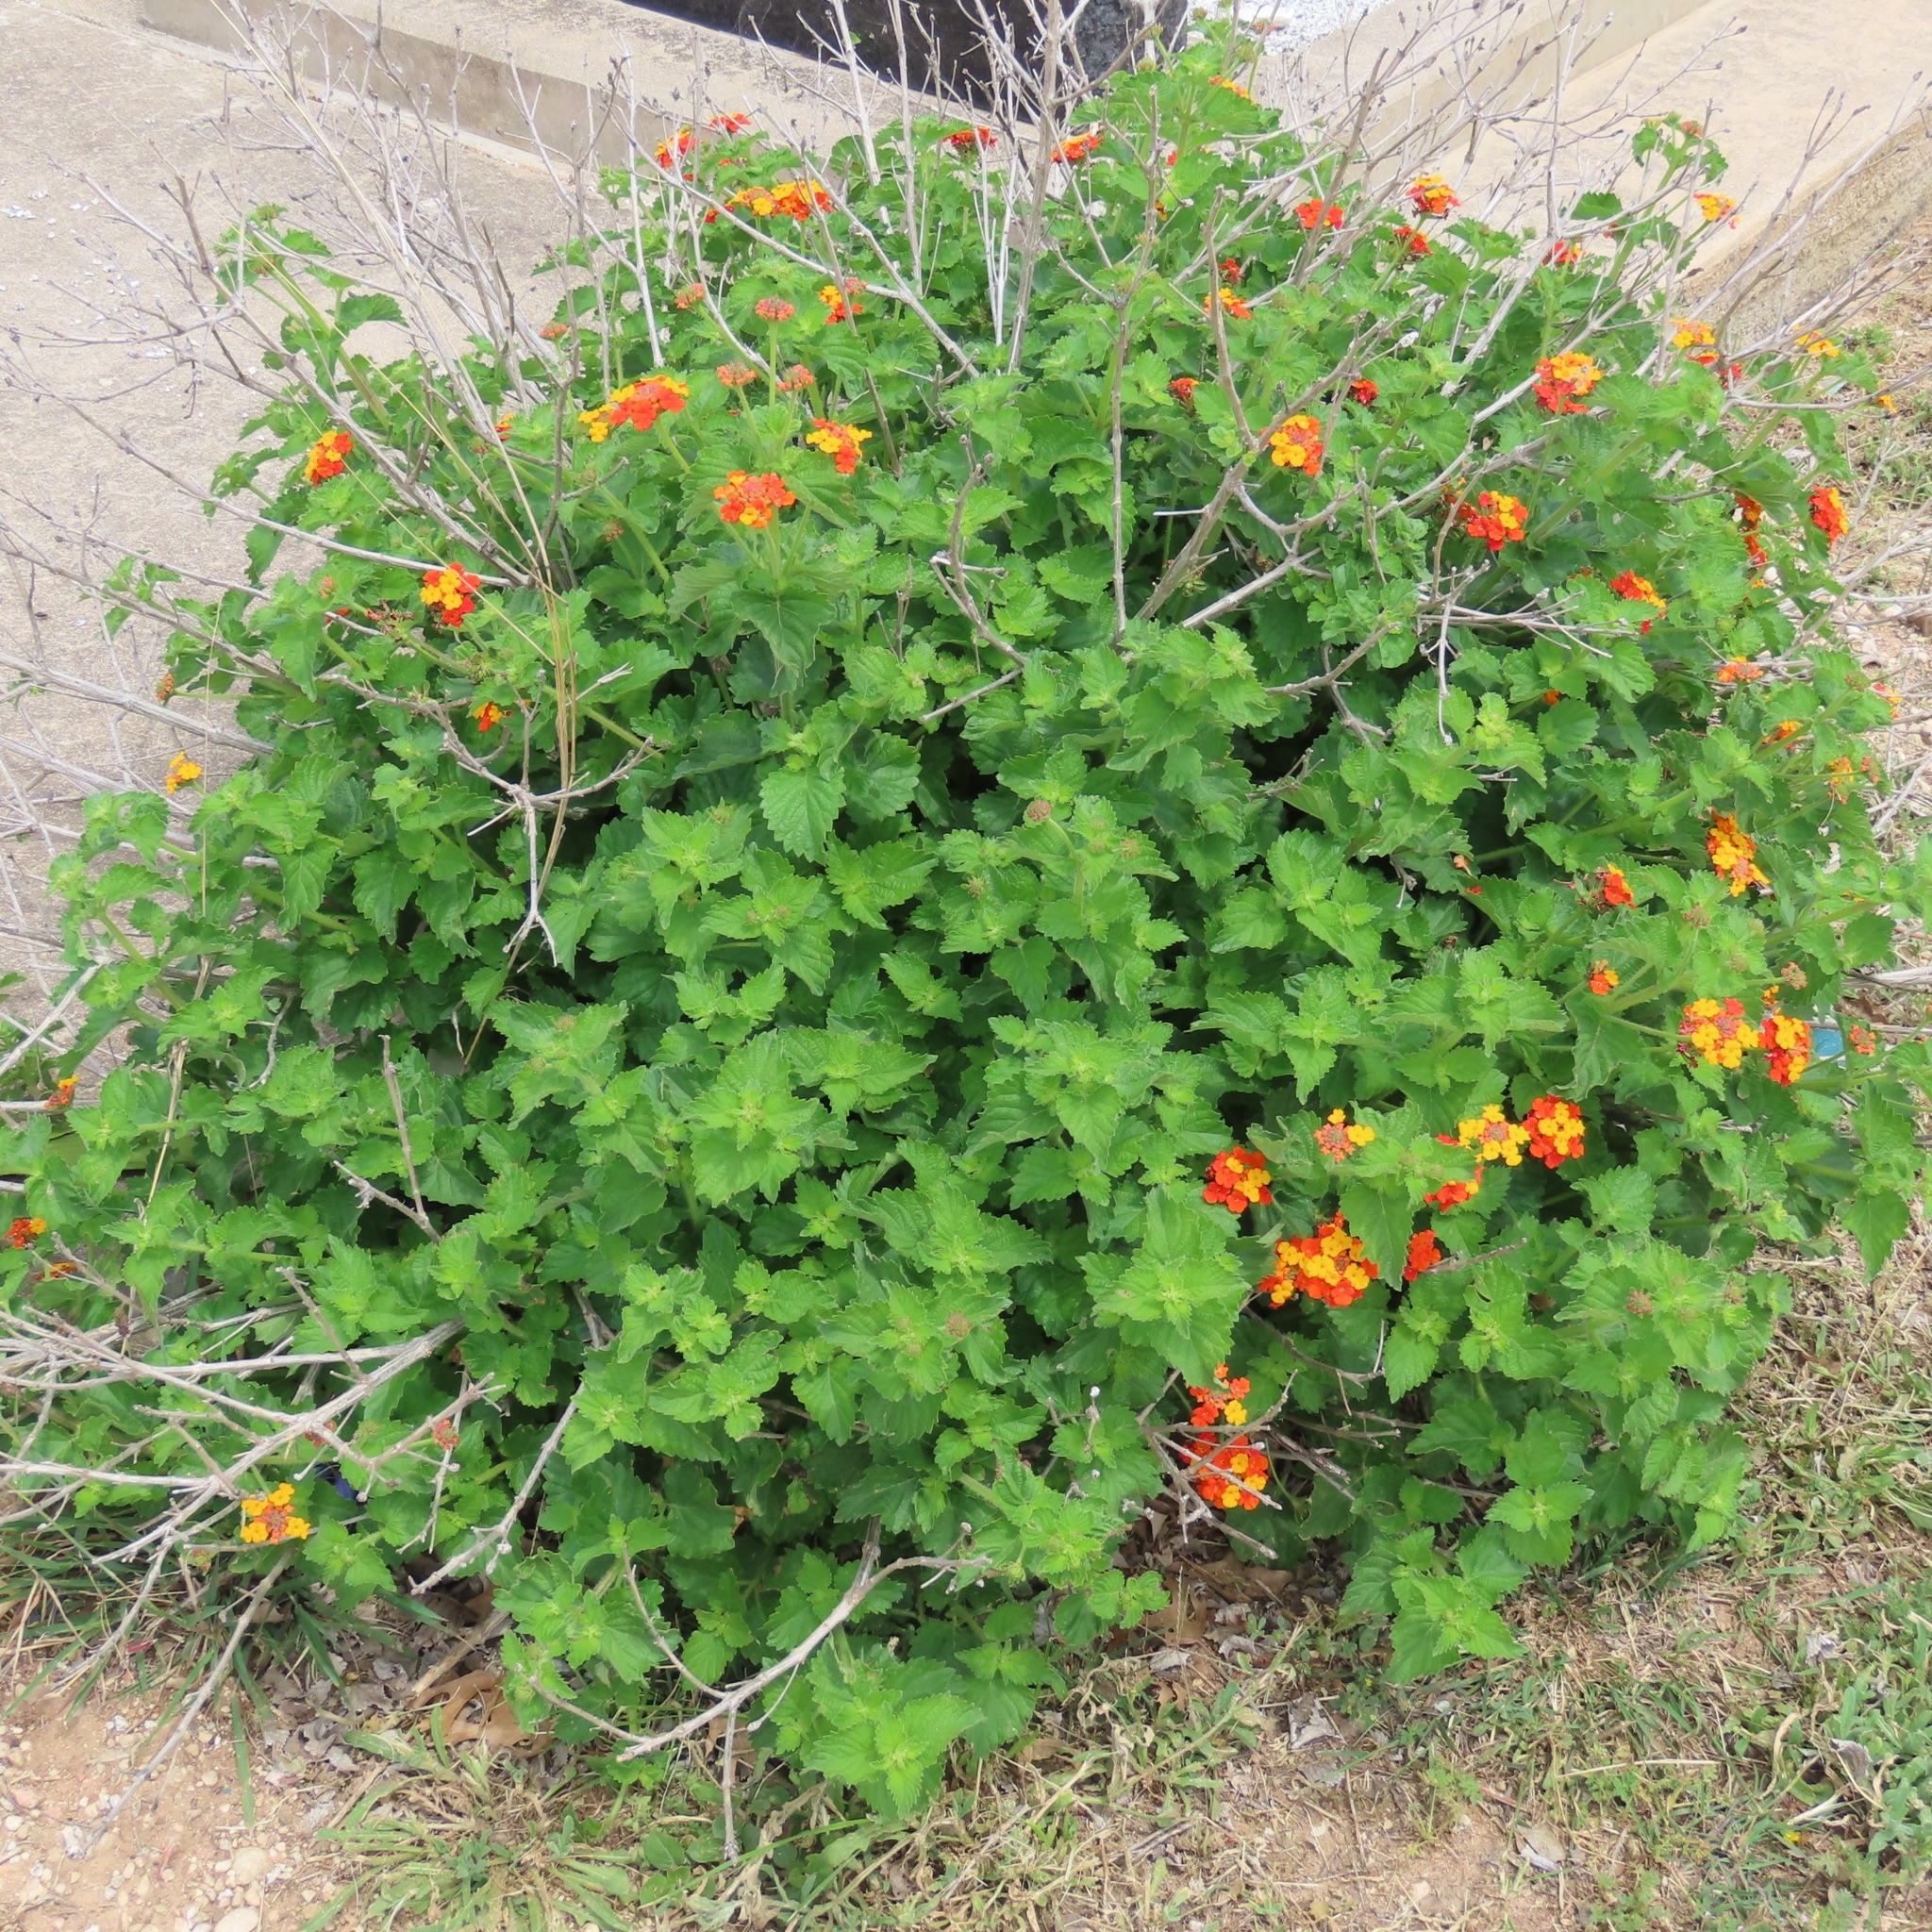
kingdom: Plantae
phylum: Tracheophyta
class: Magnoliopsida
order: Lamiales
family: Verbenaceae
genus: Lantana
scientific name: Lantana urticoides
